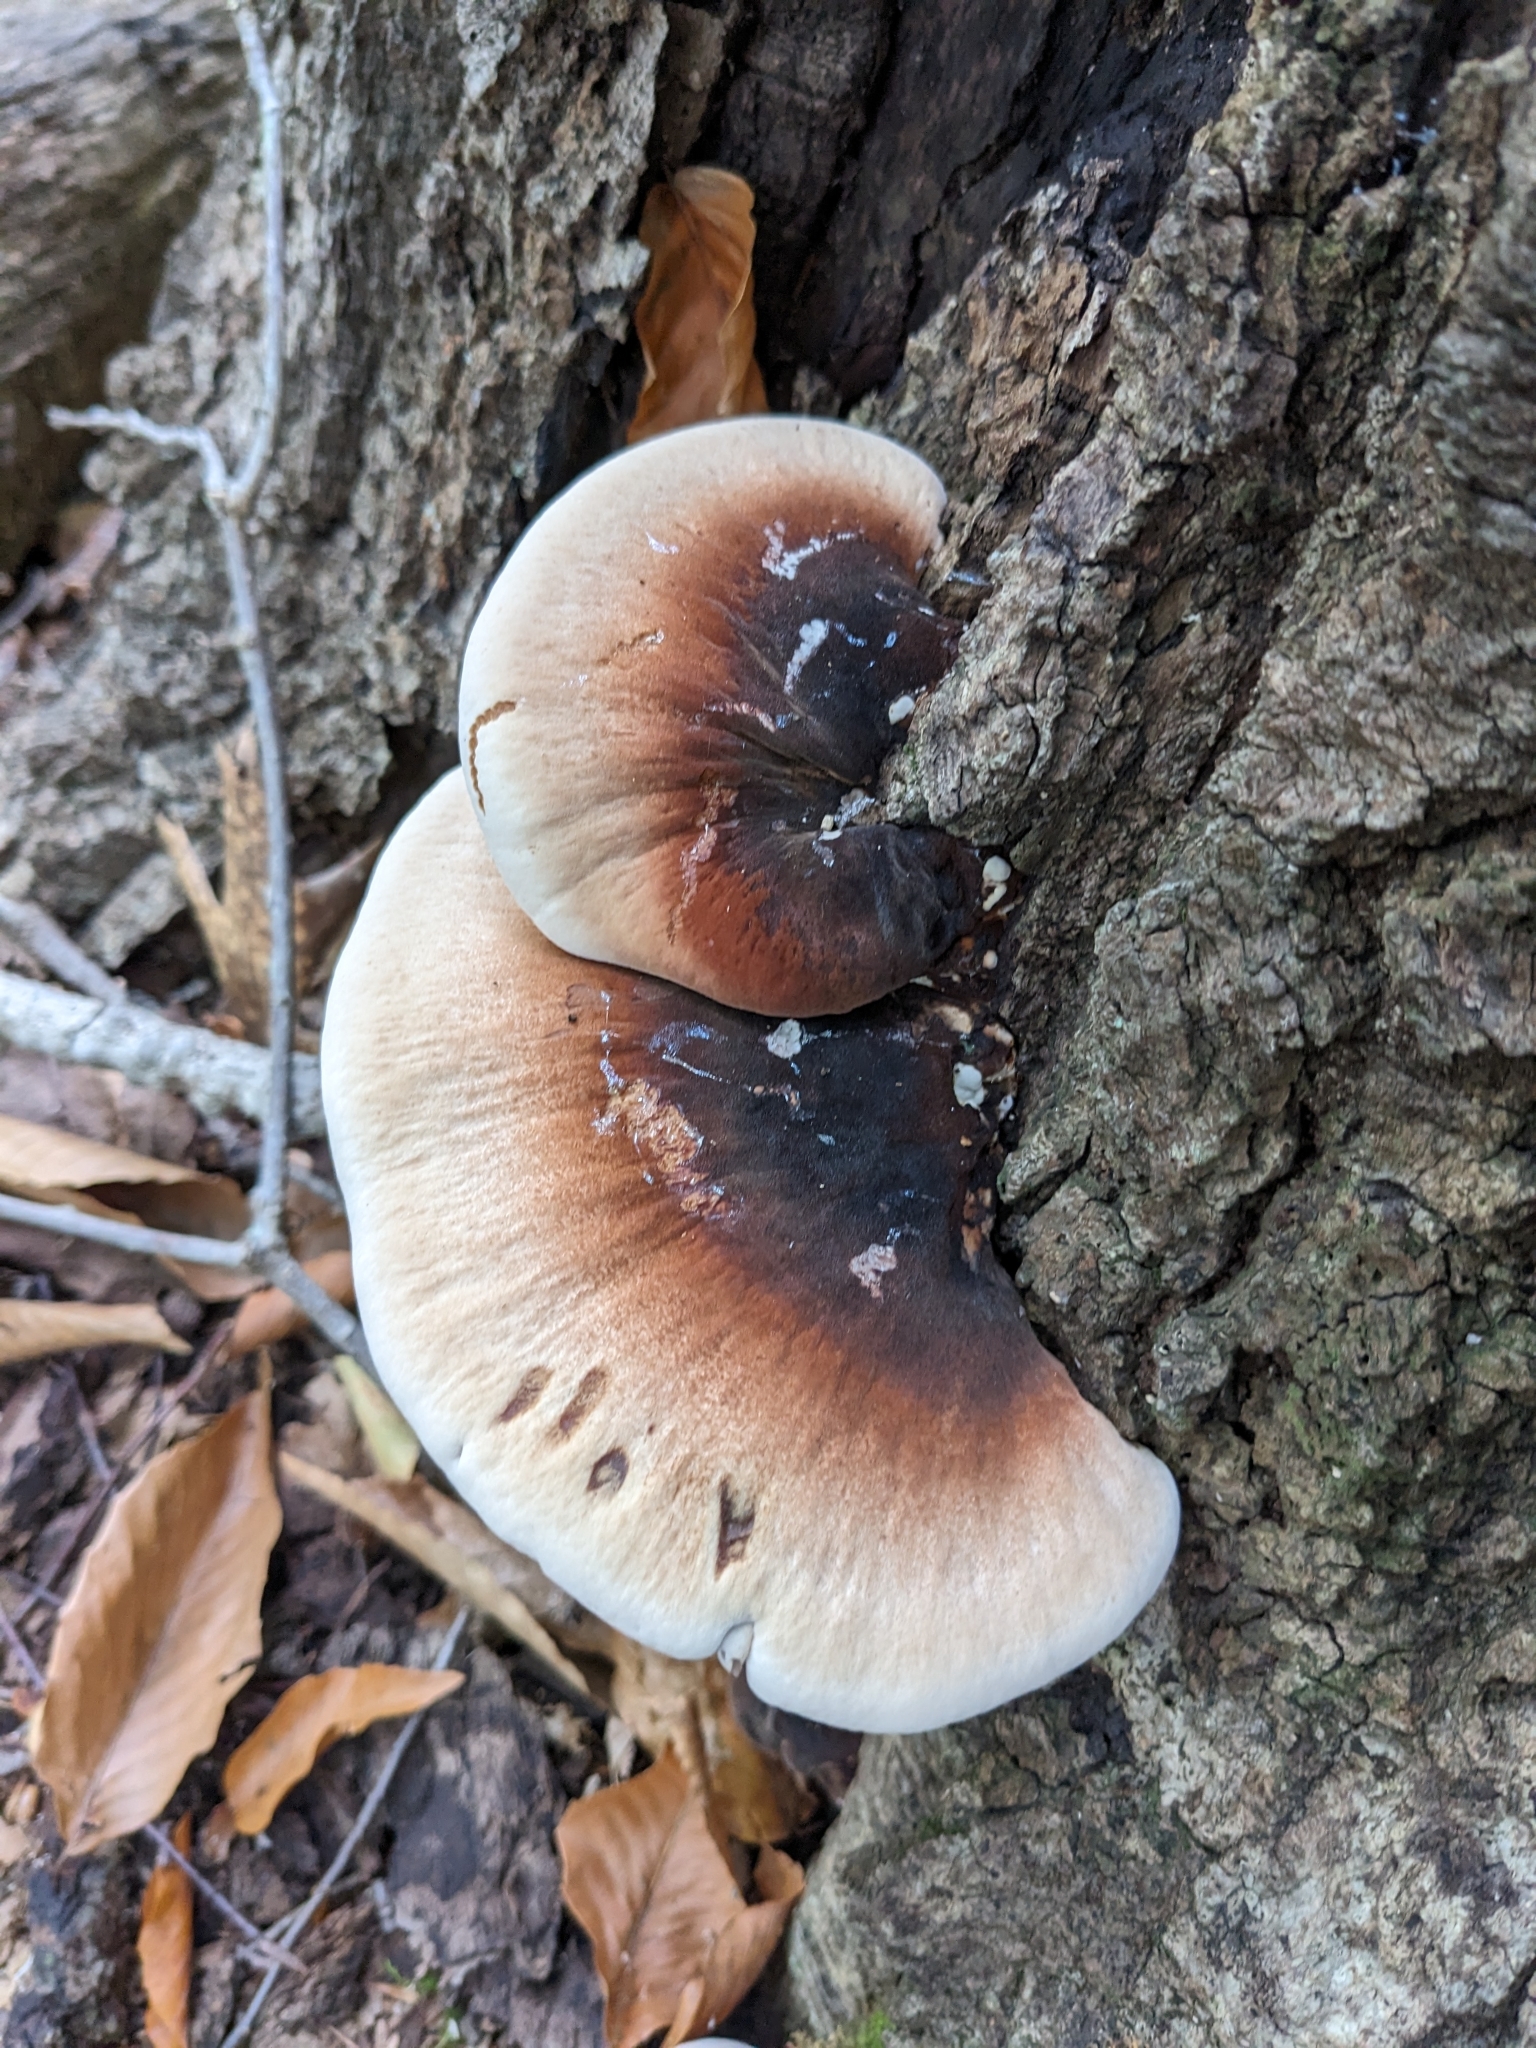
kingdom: Fungi
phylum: Basidiomycota
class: Agaricomycetes
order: Polyporales
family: Ischnodermataceae
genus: Ischnoderma
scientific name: Ischnoderma resinosum
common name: Resinous polypore
